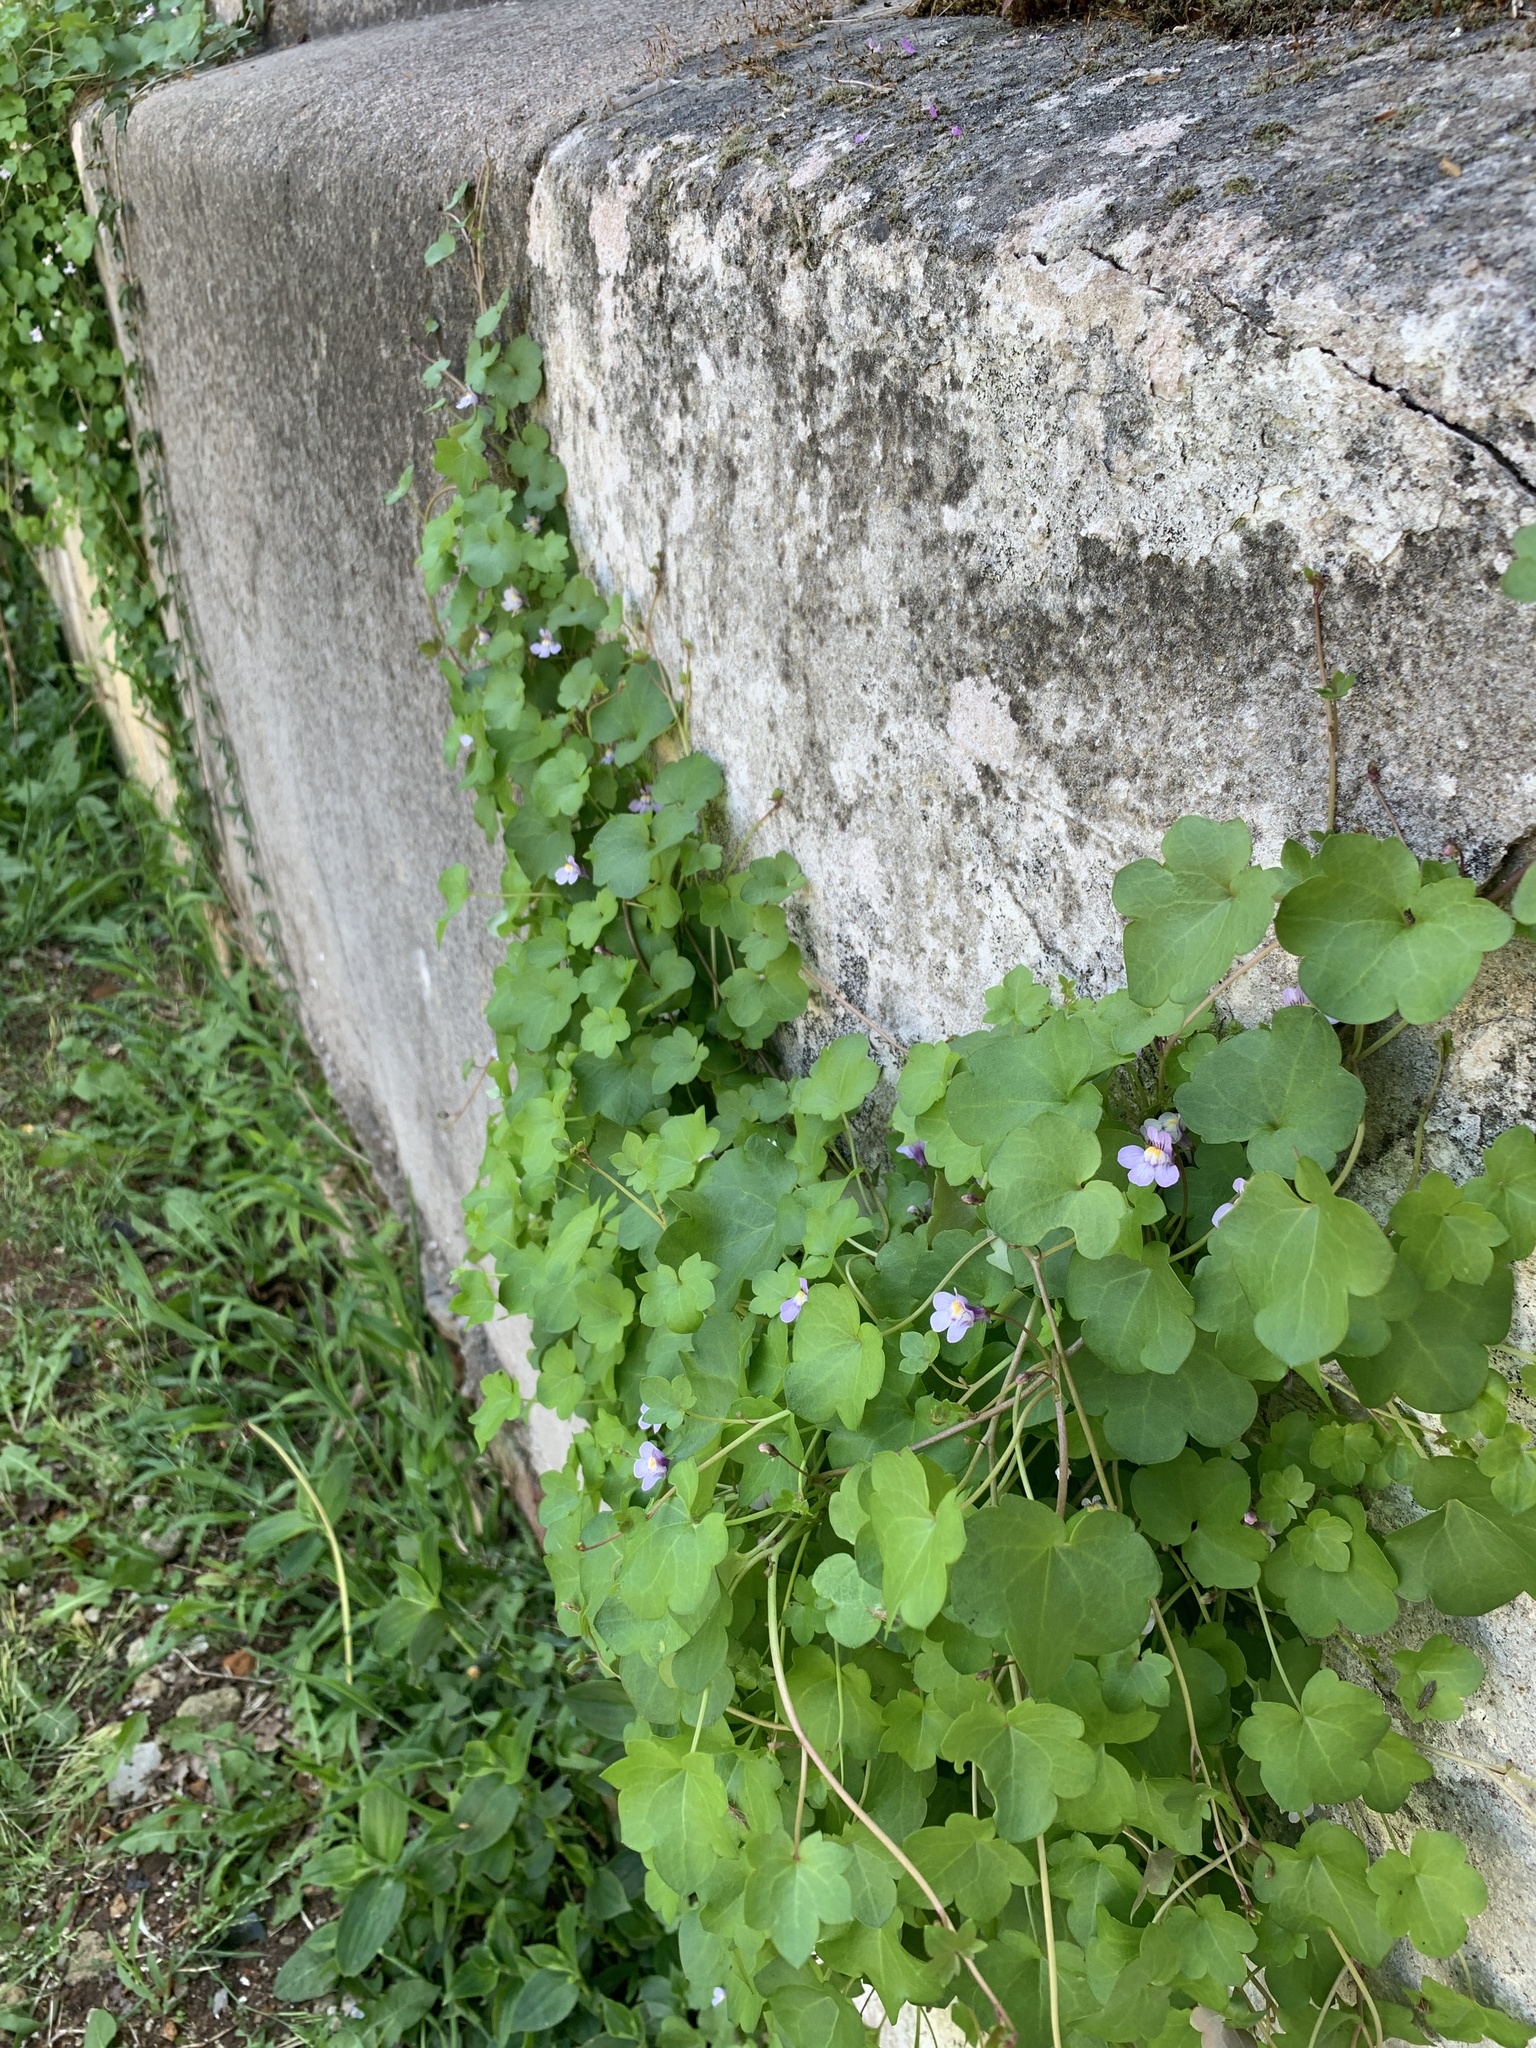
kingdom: Plantae
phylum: Tracheophyta
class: Magnoliopsida
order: Lamiales
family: Plantaginaceae
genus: Cymbalaria
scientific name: Cymbalaria muralis
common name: Ivy-leaved toadflax
